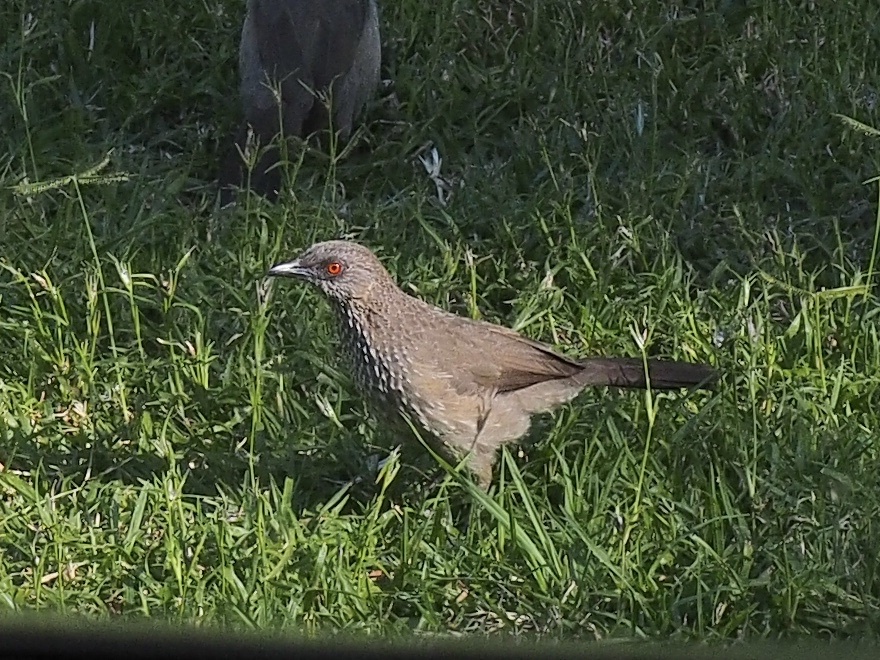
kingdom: Animalia
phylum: Chordata
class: Aves
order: Passeriformes
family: Leiothrichidae
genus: Turdoides
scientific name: Turdoides jardineii
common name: Arrow-marked babbler
